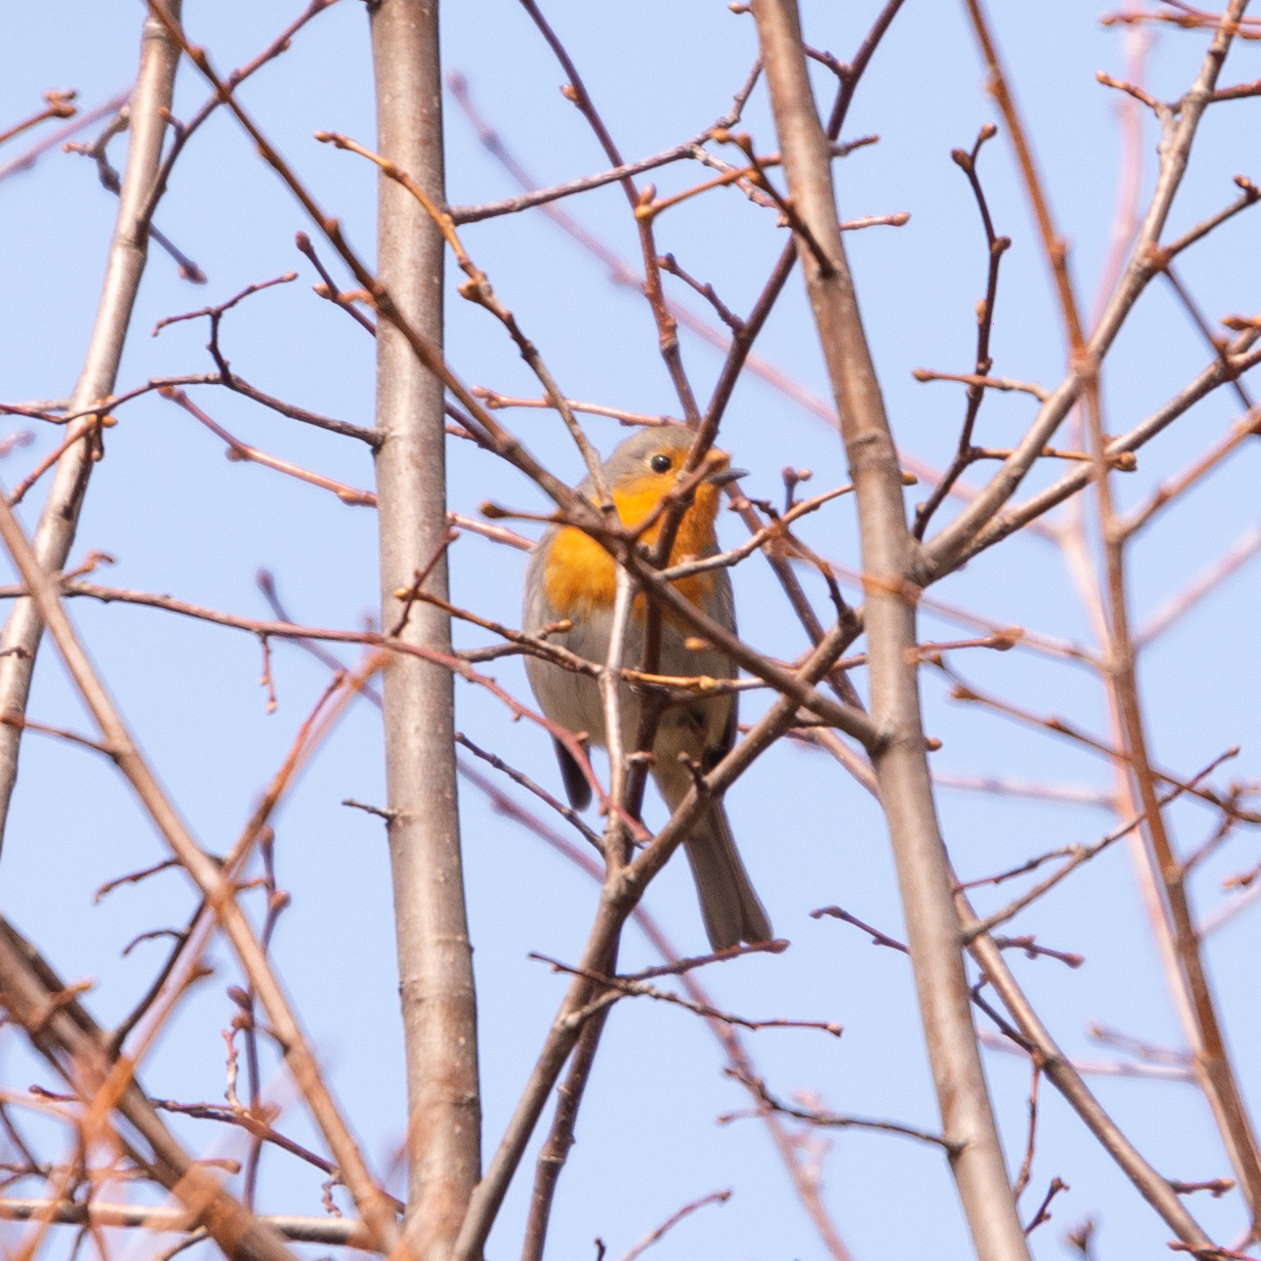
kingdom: Animalia
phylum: Chordata
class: Aves
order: Passeriformes
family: Muscicapidae
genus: Erithacus
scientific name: Erithacus rubecula
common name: European robin
